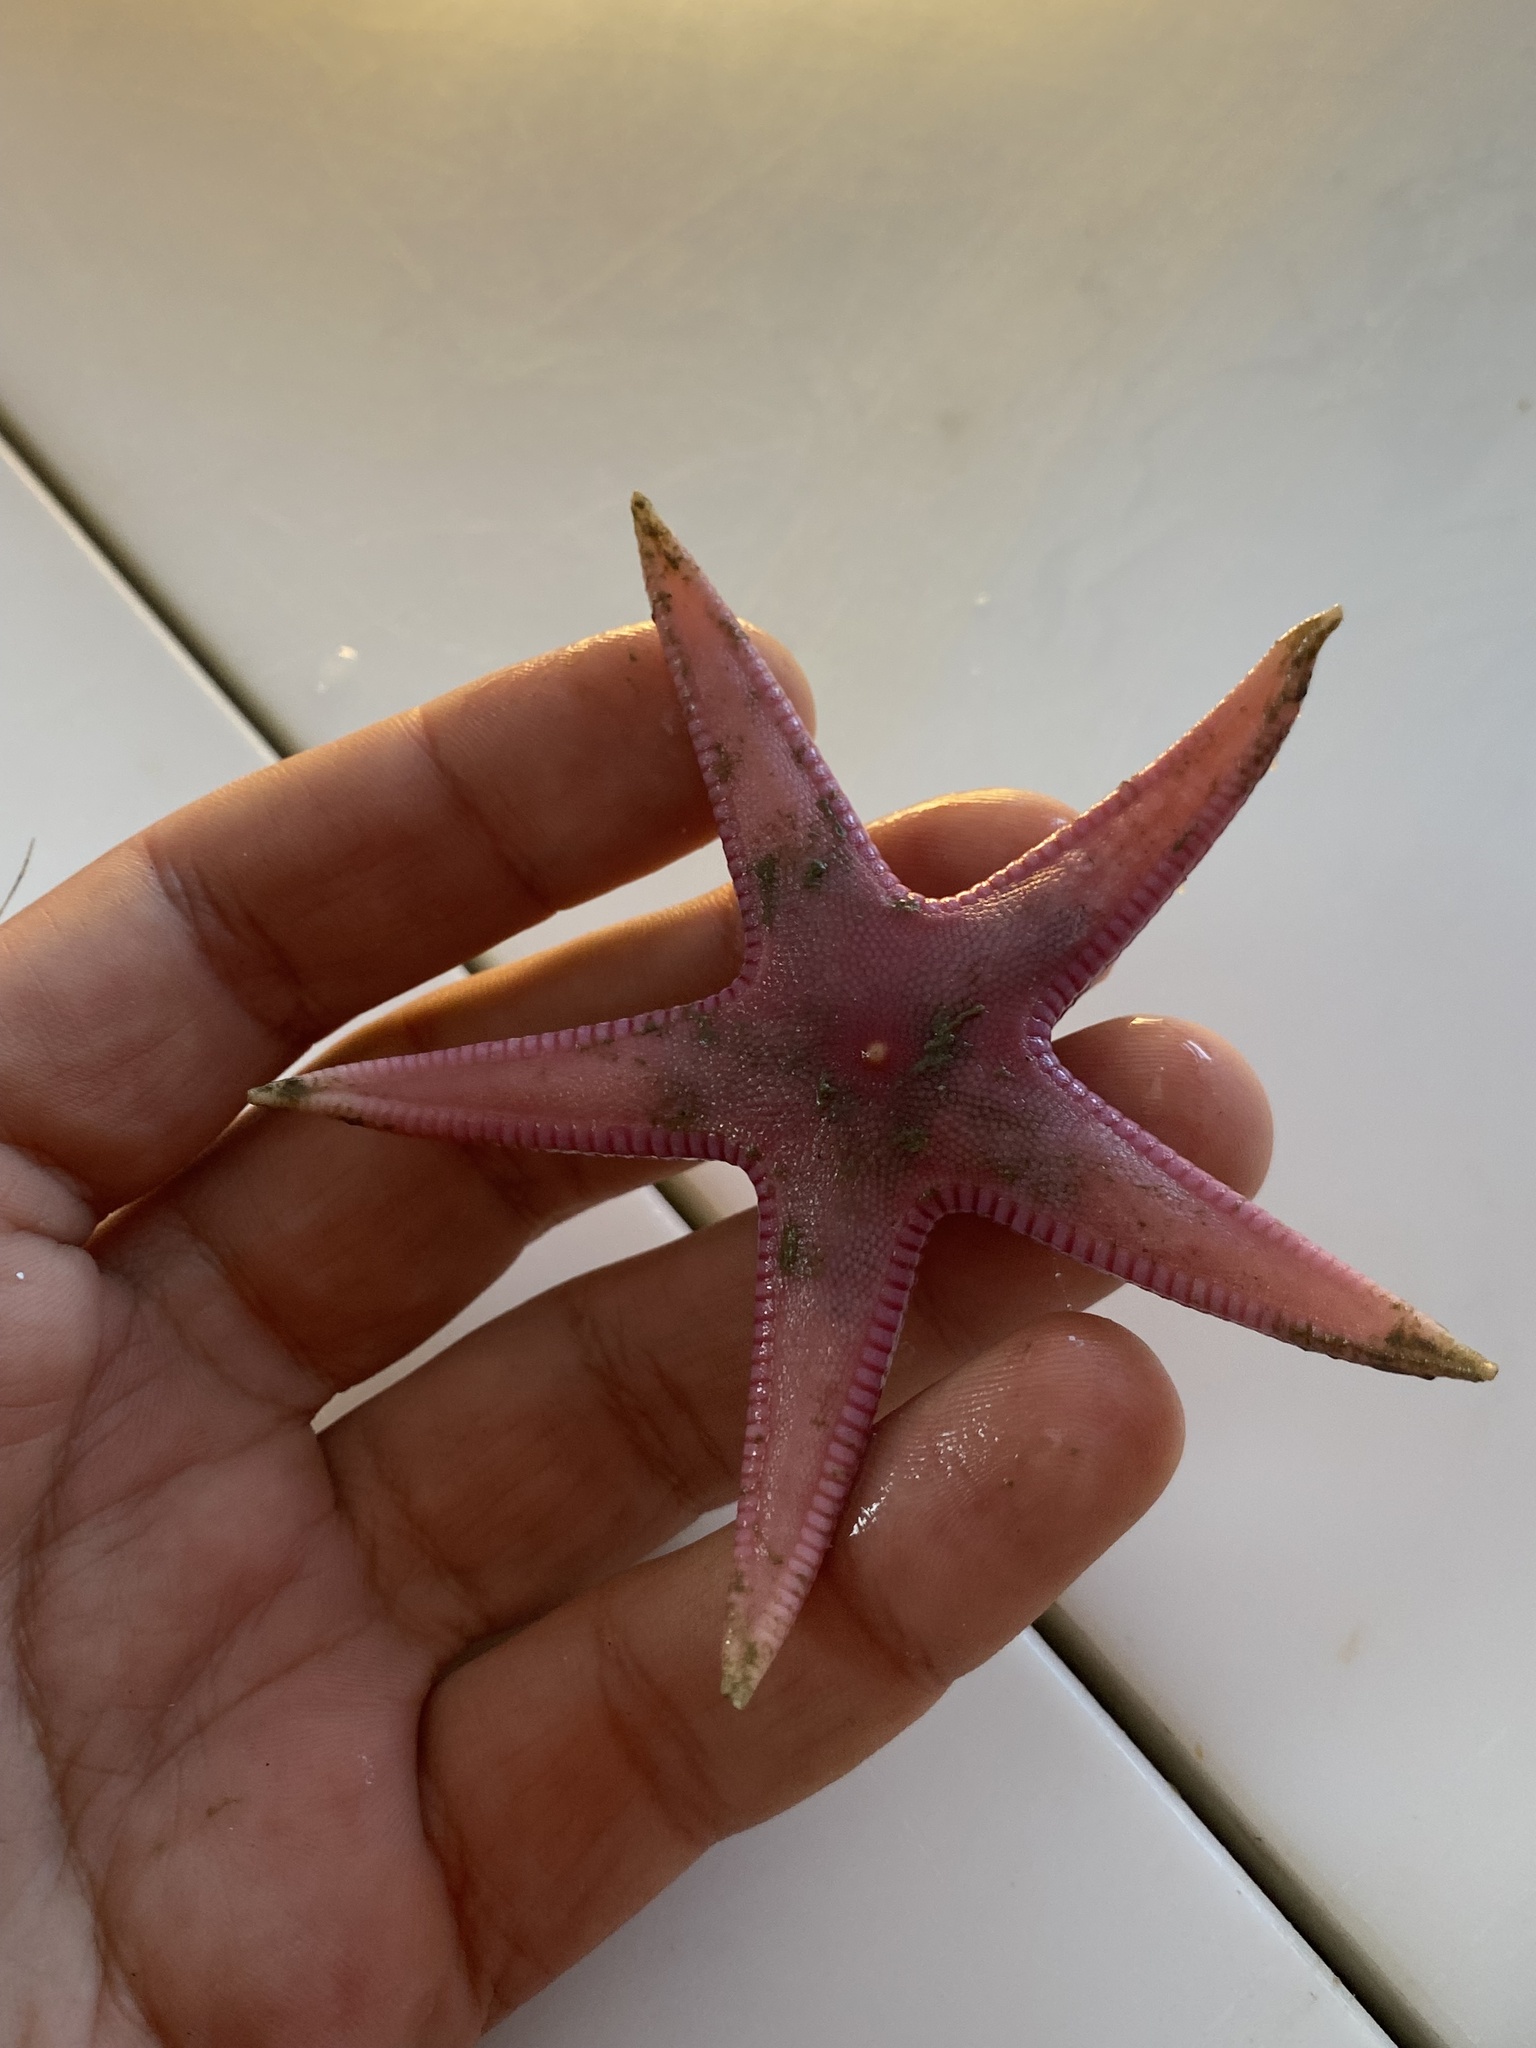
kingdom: Animalia
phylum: Echinodermata
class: Asteroidea
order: Paxillosida
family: Astropectinidae
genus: Psilaster
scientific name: Psilaster andromeda
